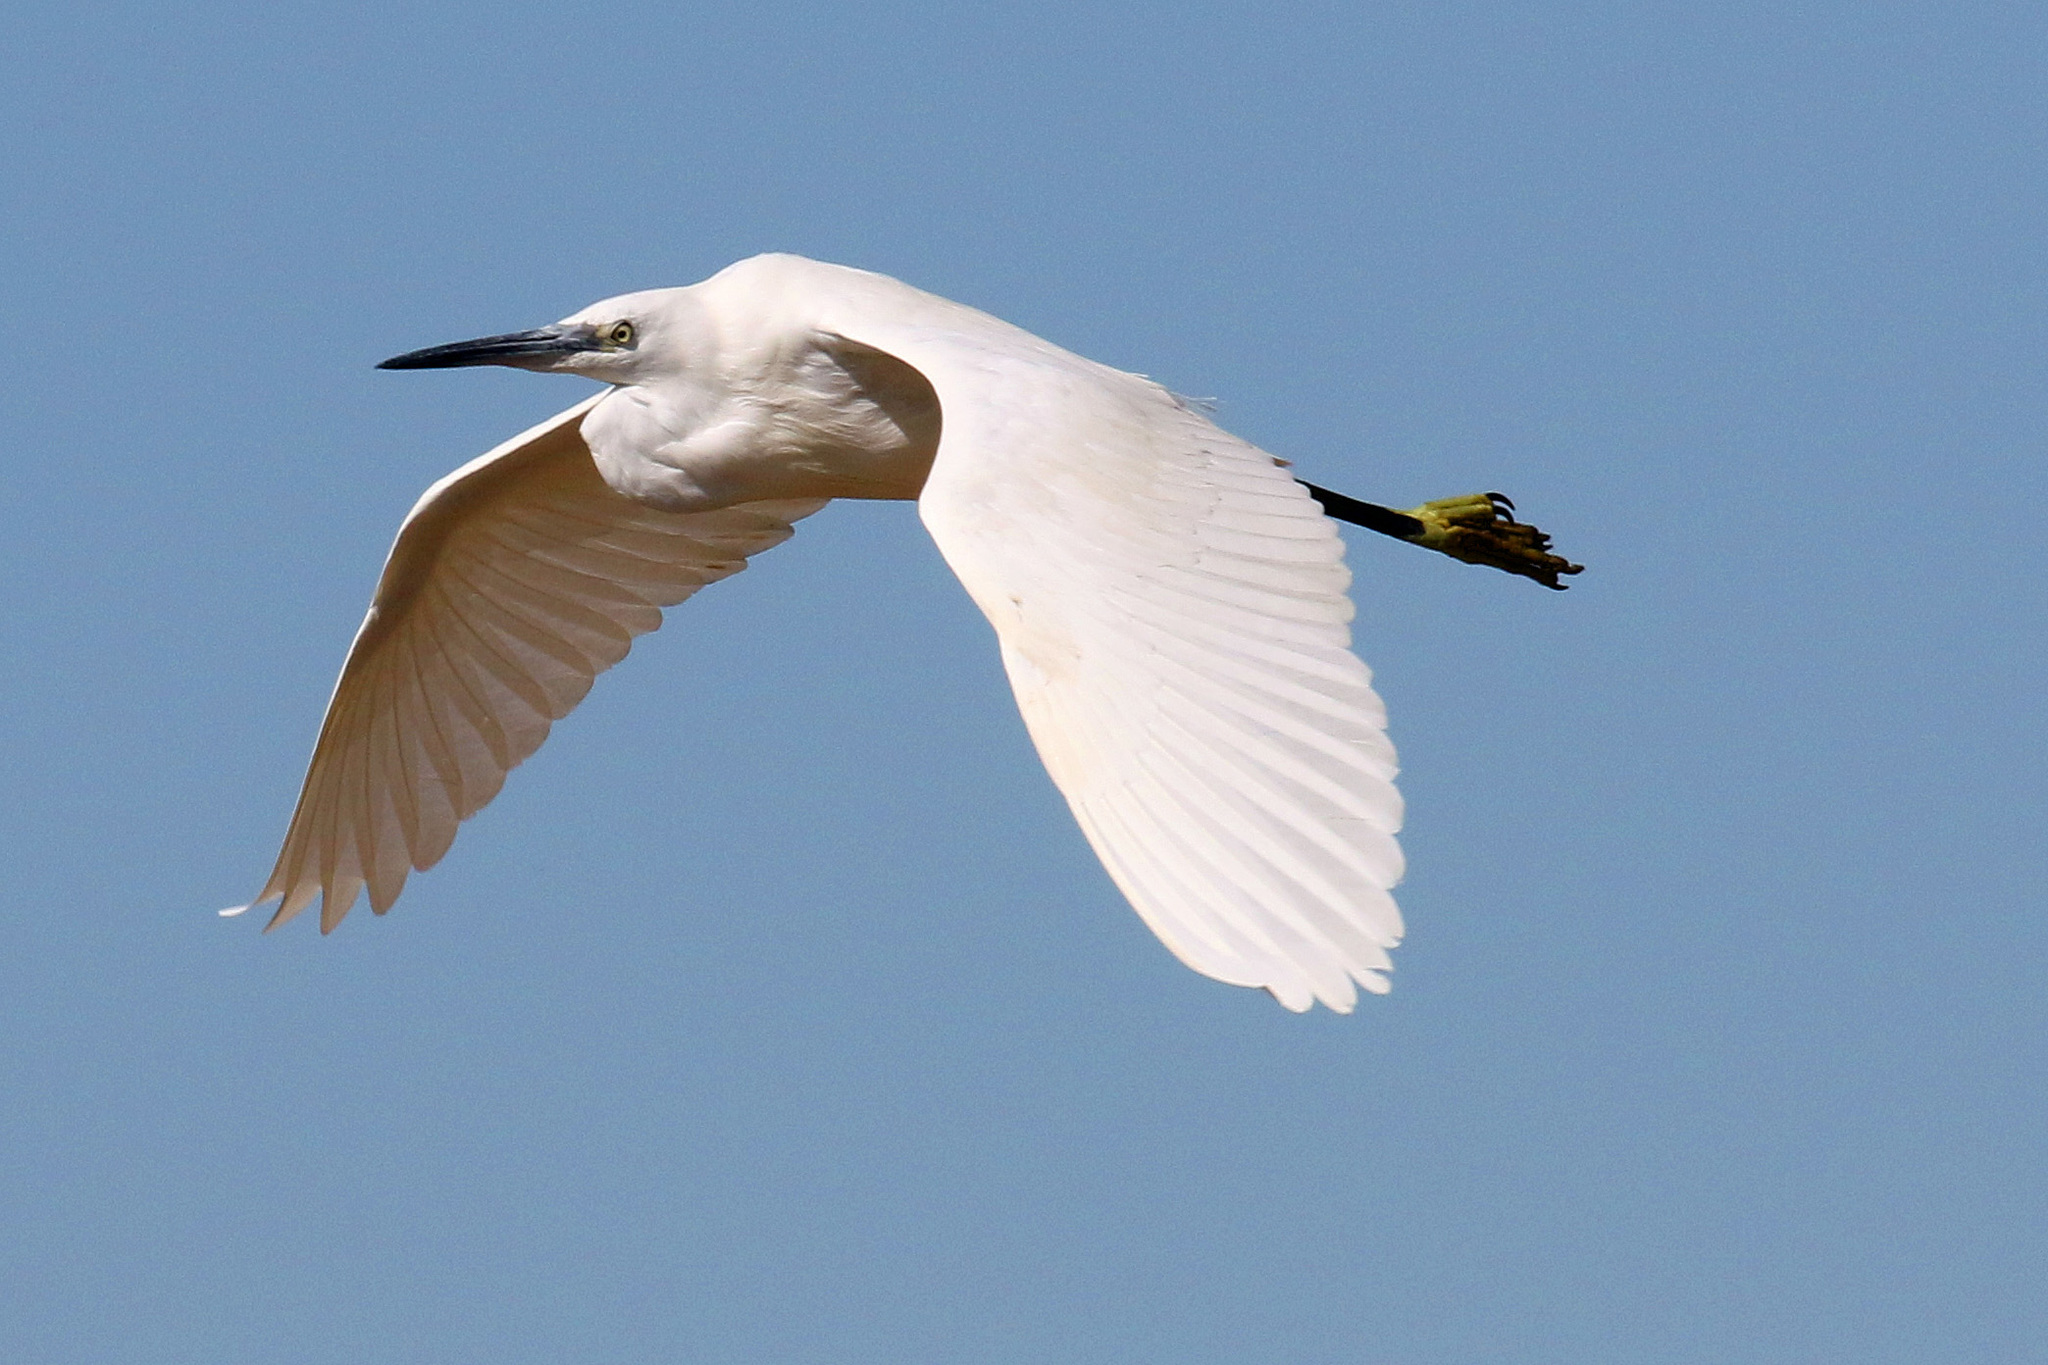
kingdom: Animalia
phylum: Chordata
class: Aves
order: Pelecaniformes
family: Ardeidae
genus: Egretta
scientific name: Egretta garzetta
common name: Little egret
